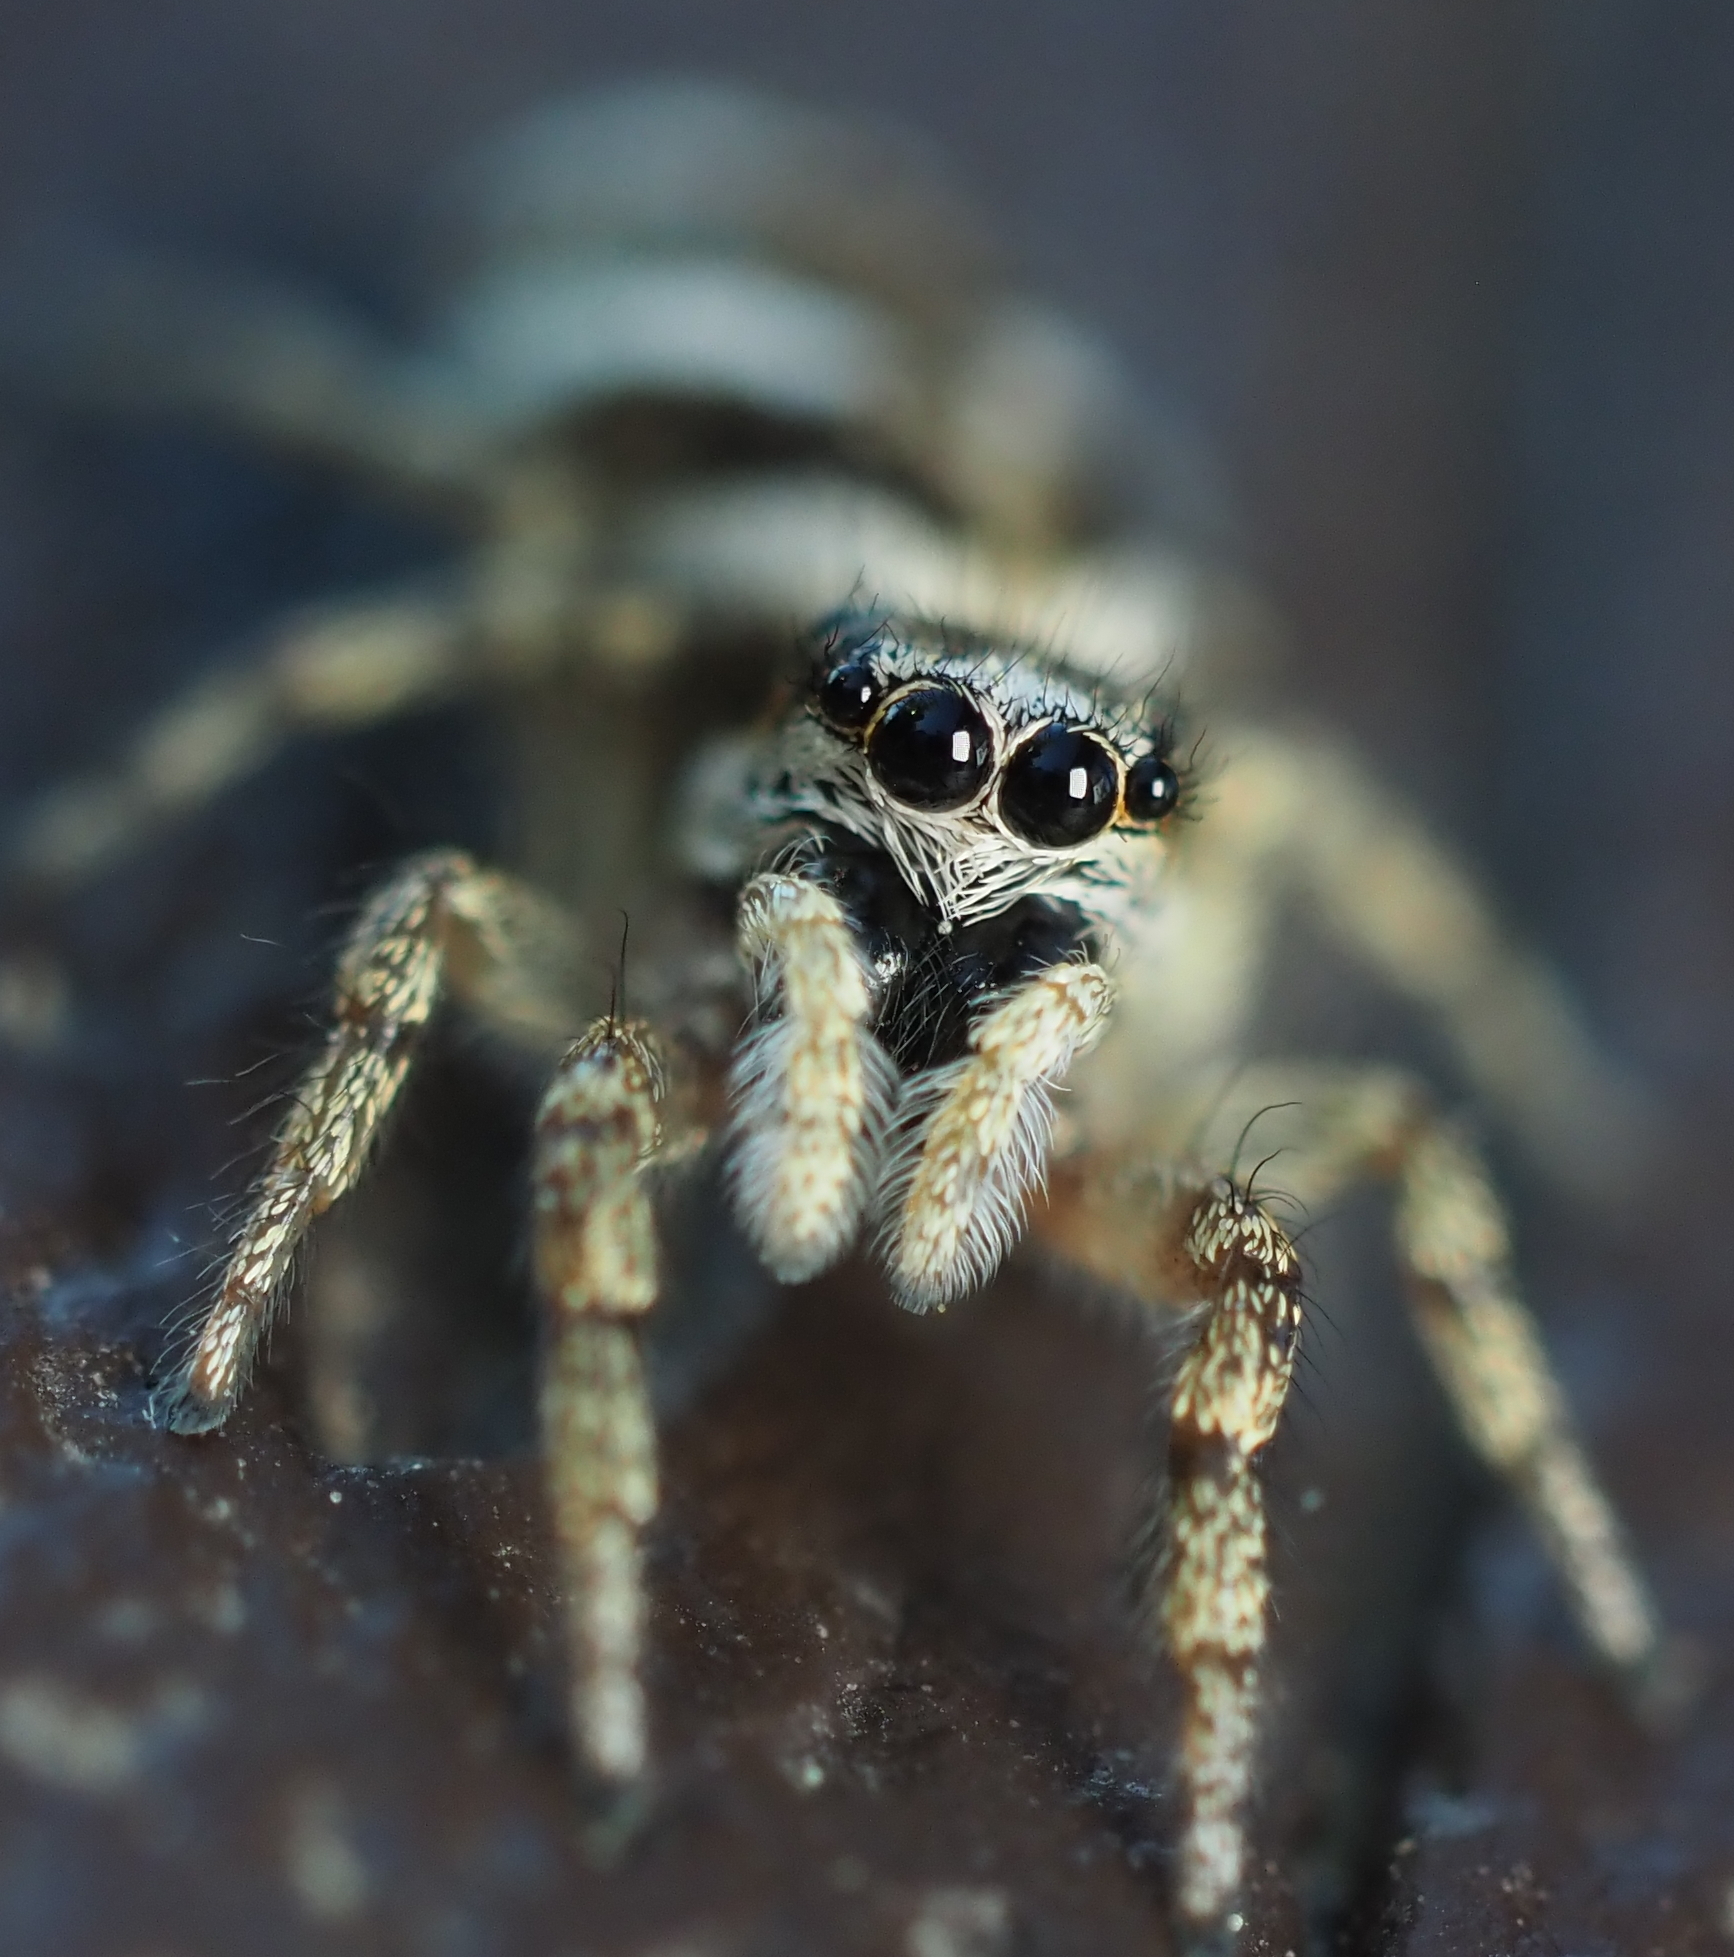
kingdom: Animalia
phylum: Arthropoda
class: Arachnida
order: Araneae
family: Salticidae
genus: Salticus
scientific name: Salticus scenicus
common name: Zebra jumper
